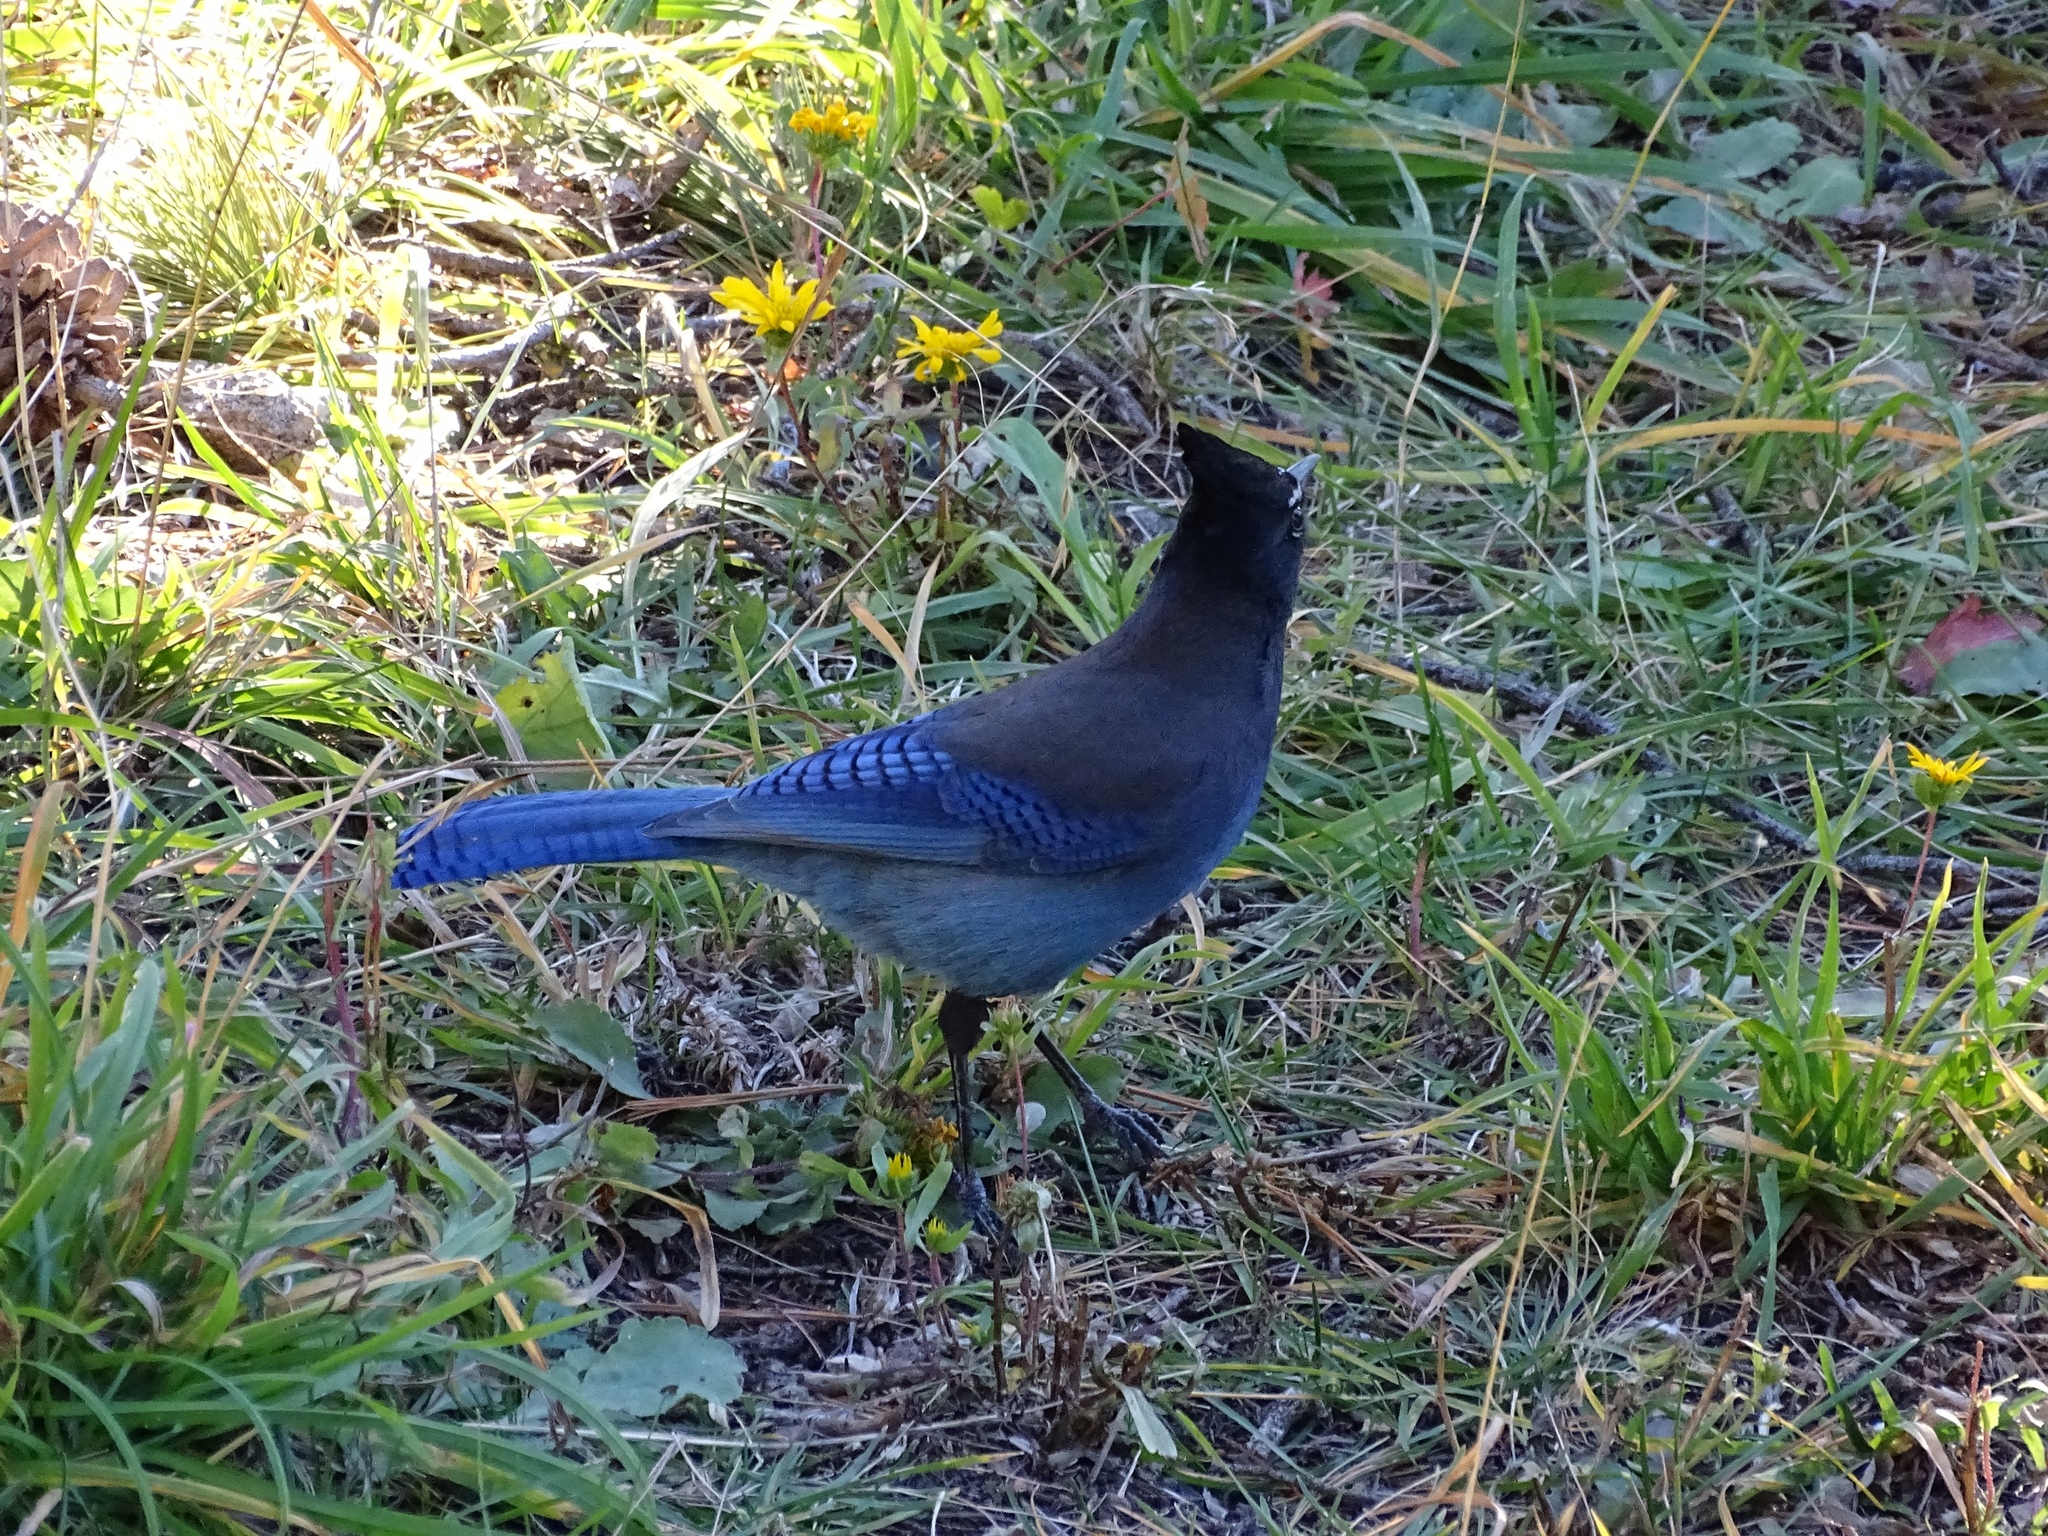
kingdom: Animalia
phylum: Chordata
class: Aves
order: Passeriformes
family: Corvidae
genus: Cyanocitta
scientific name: Cyanocitta stelleri
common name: Steller's jay
